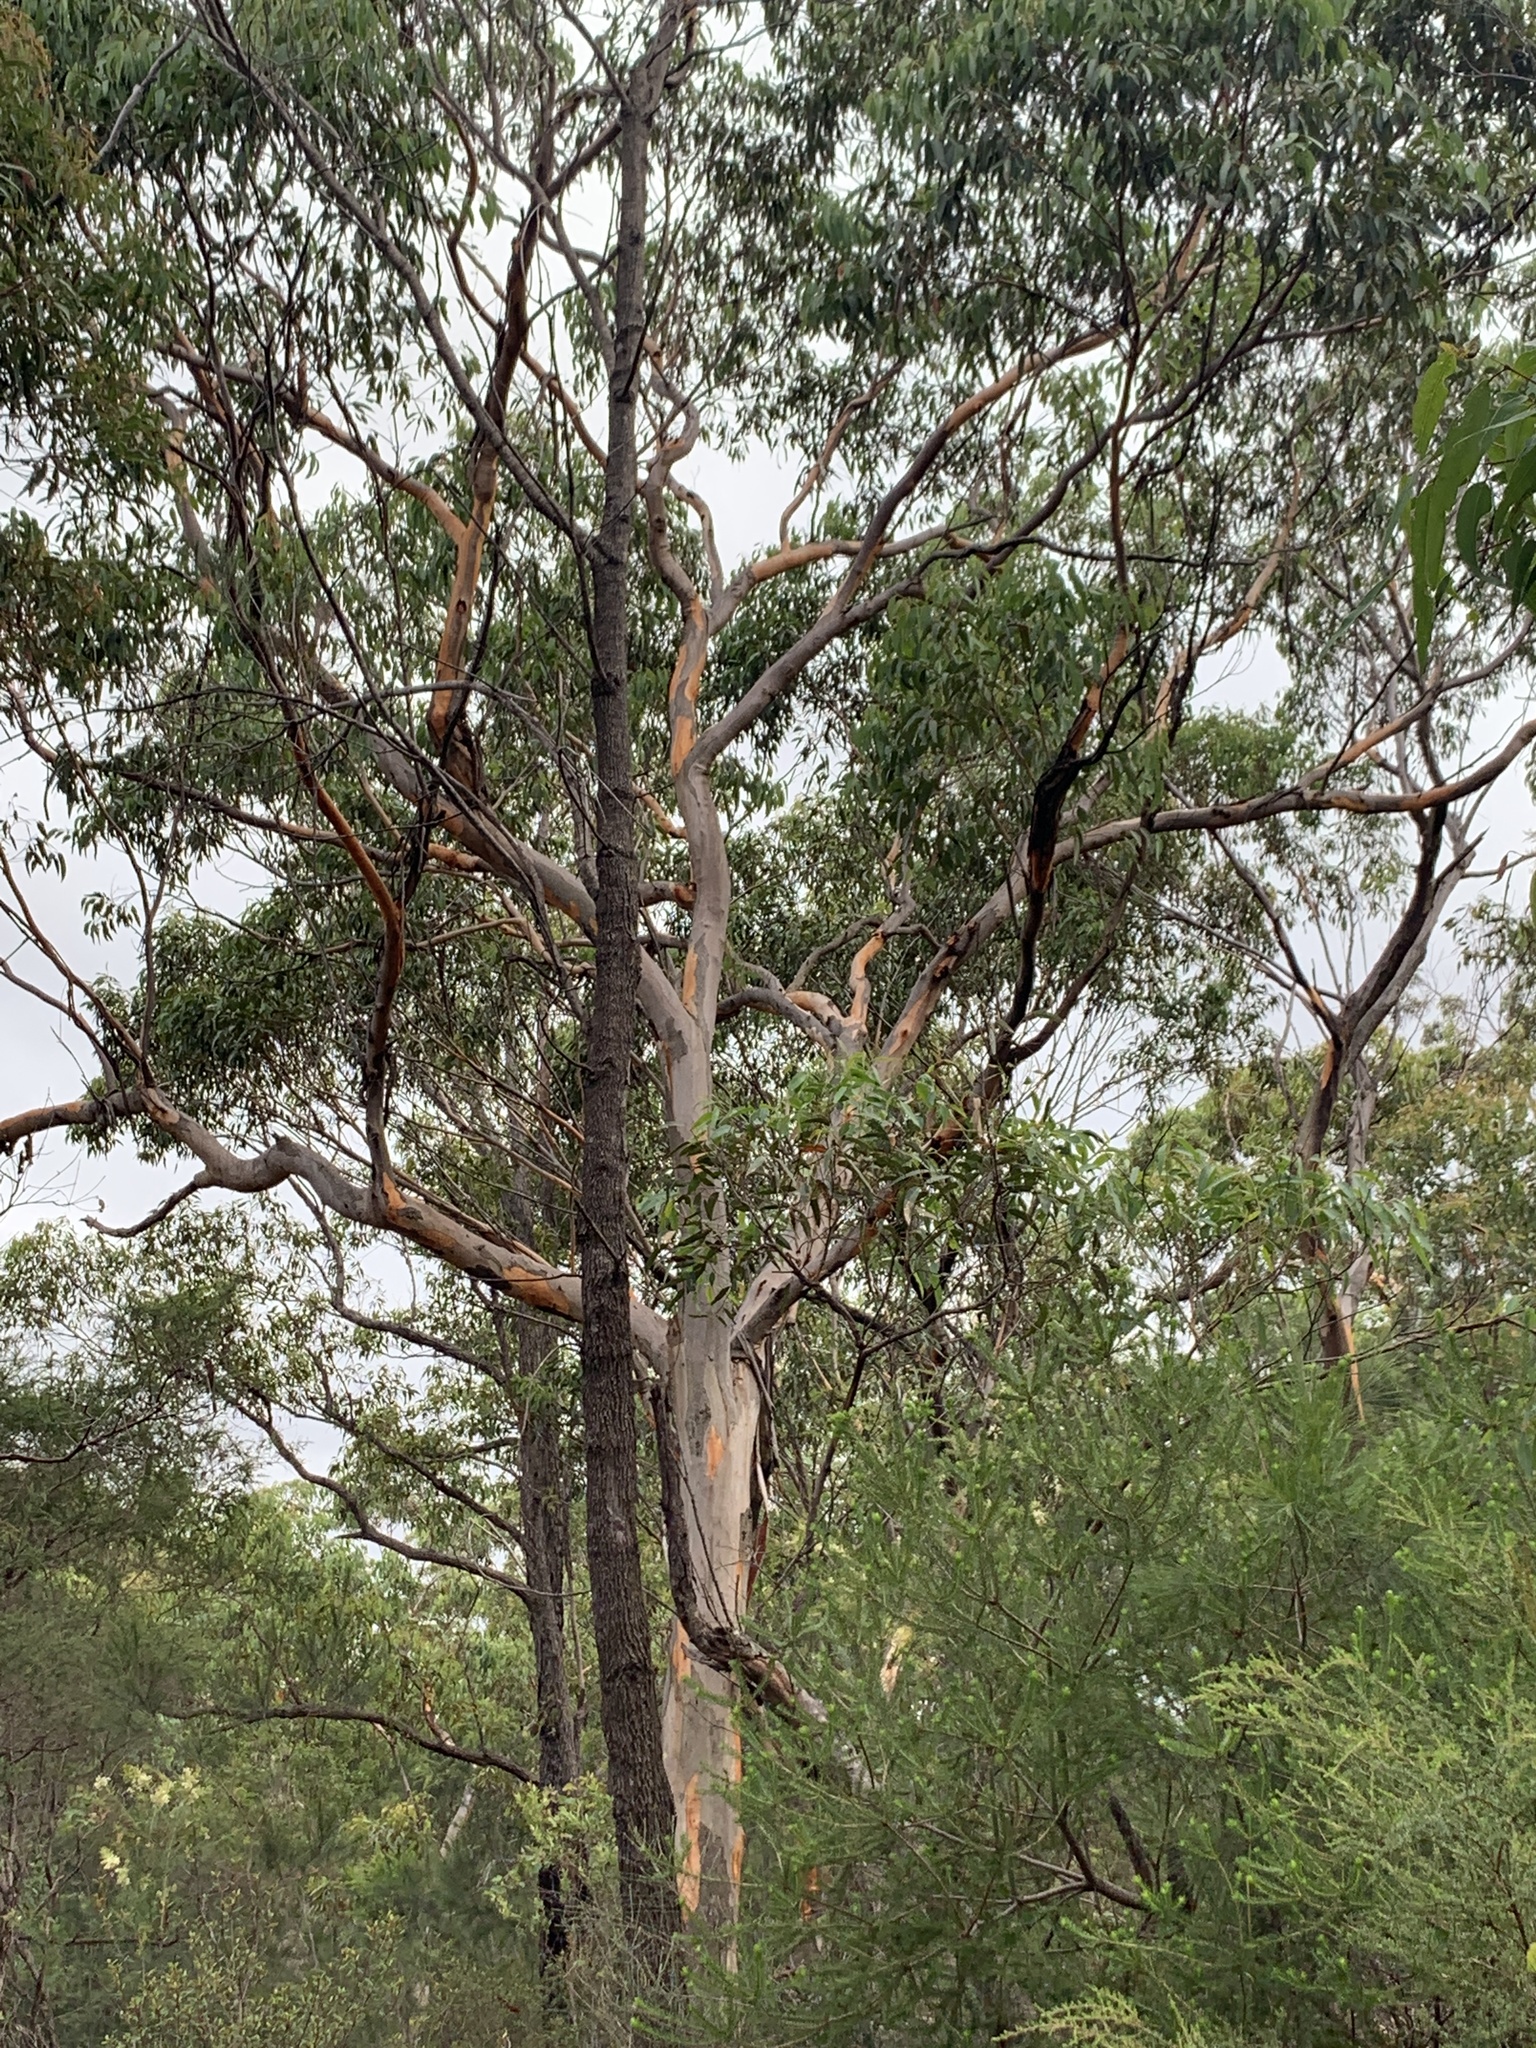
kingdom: Plantae
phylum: Tracheophyta
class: Magnoliopsida
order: Myrtales
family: Myrtaceae
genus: Eucalyptus
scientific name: Eucalyptus punctata
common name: Gray gum
